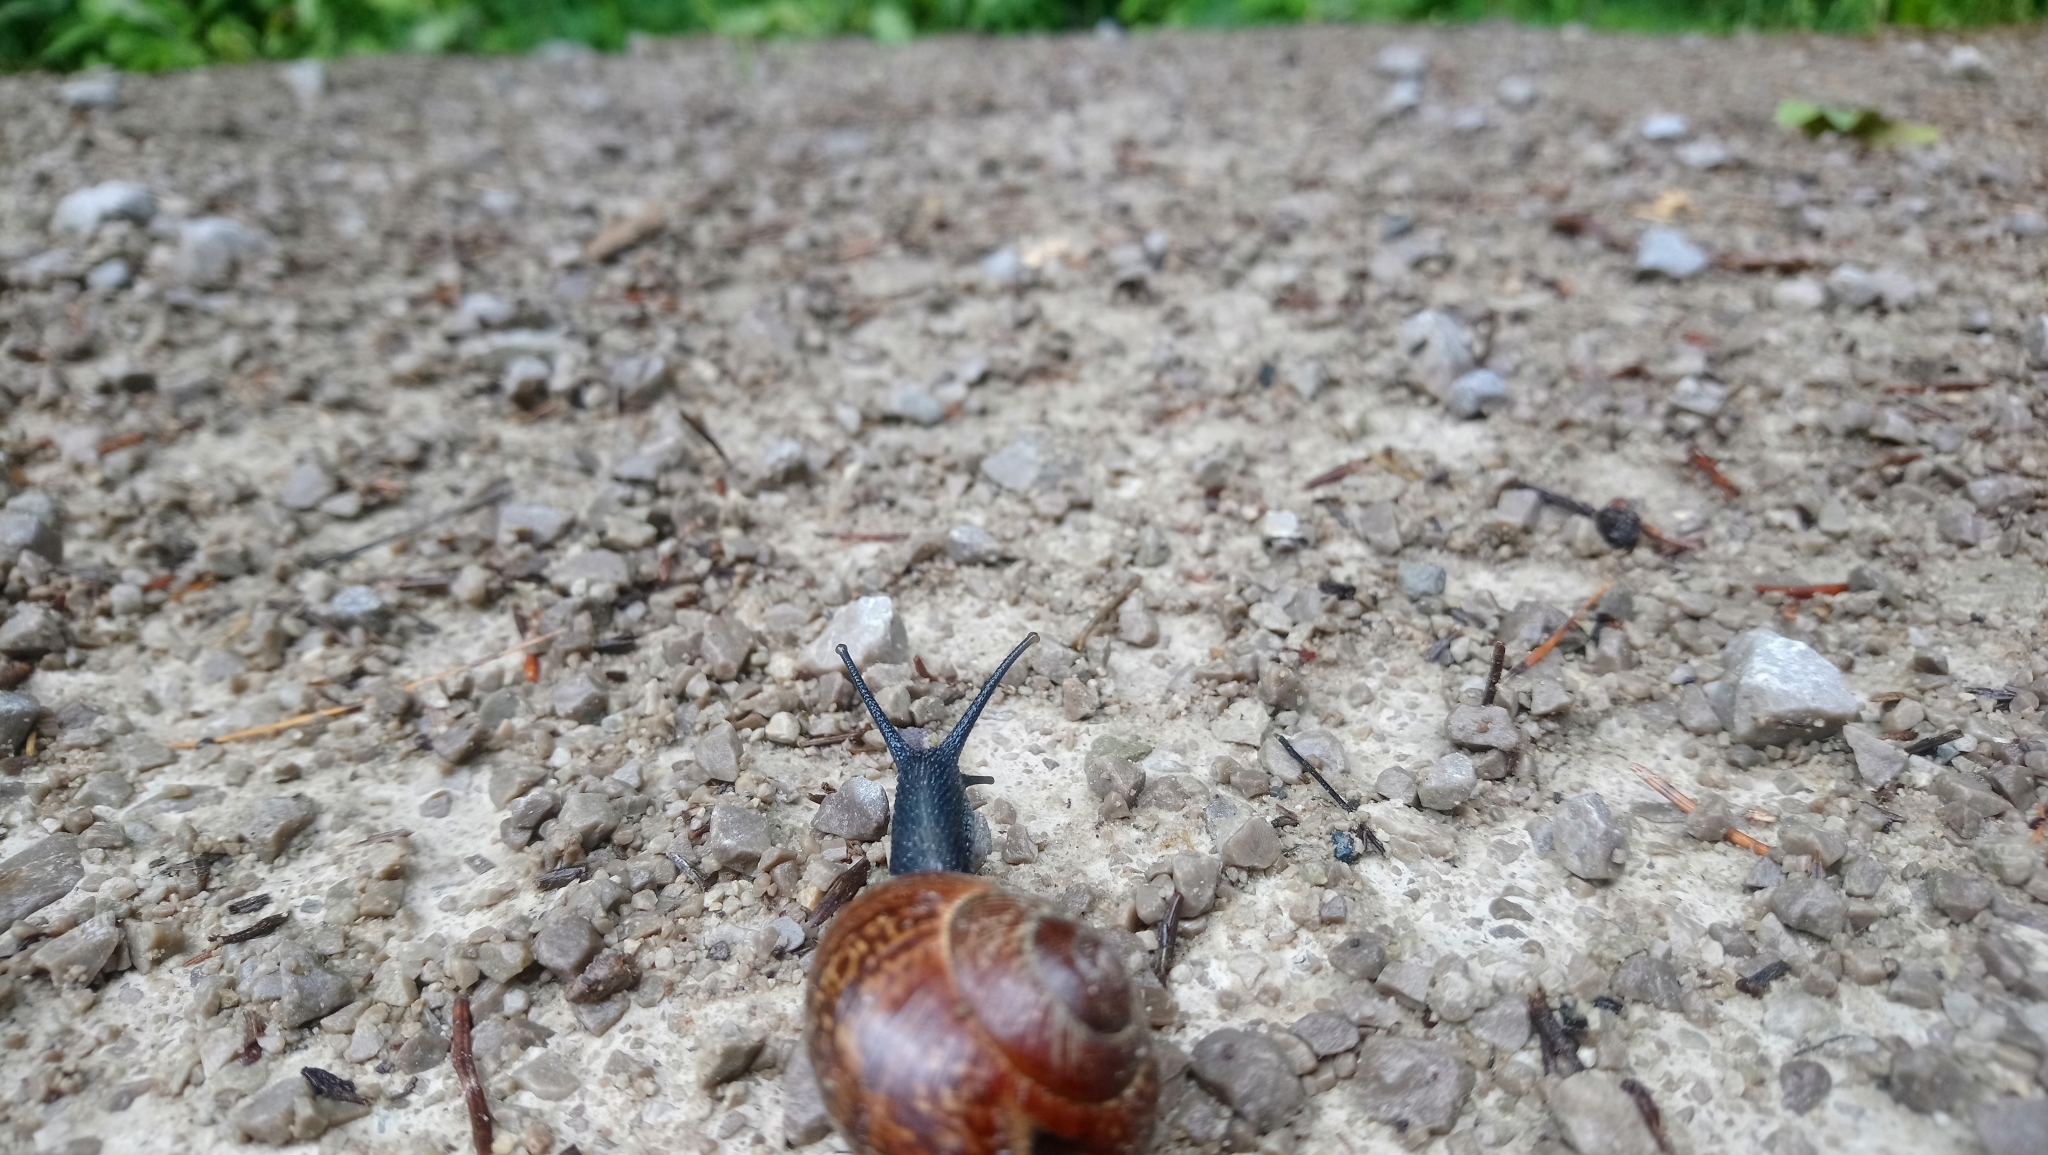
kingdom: Animalia
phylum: Mollusca
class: Gastropoda
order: Stylommatophora
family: Helicidae
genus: Arianta
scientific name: Arianta arbustorum
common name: Copse snail
